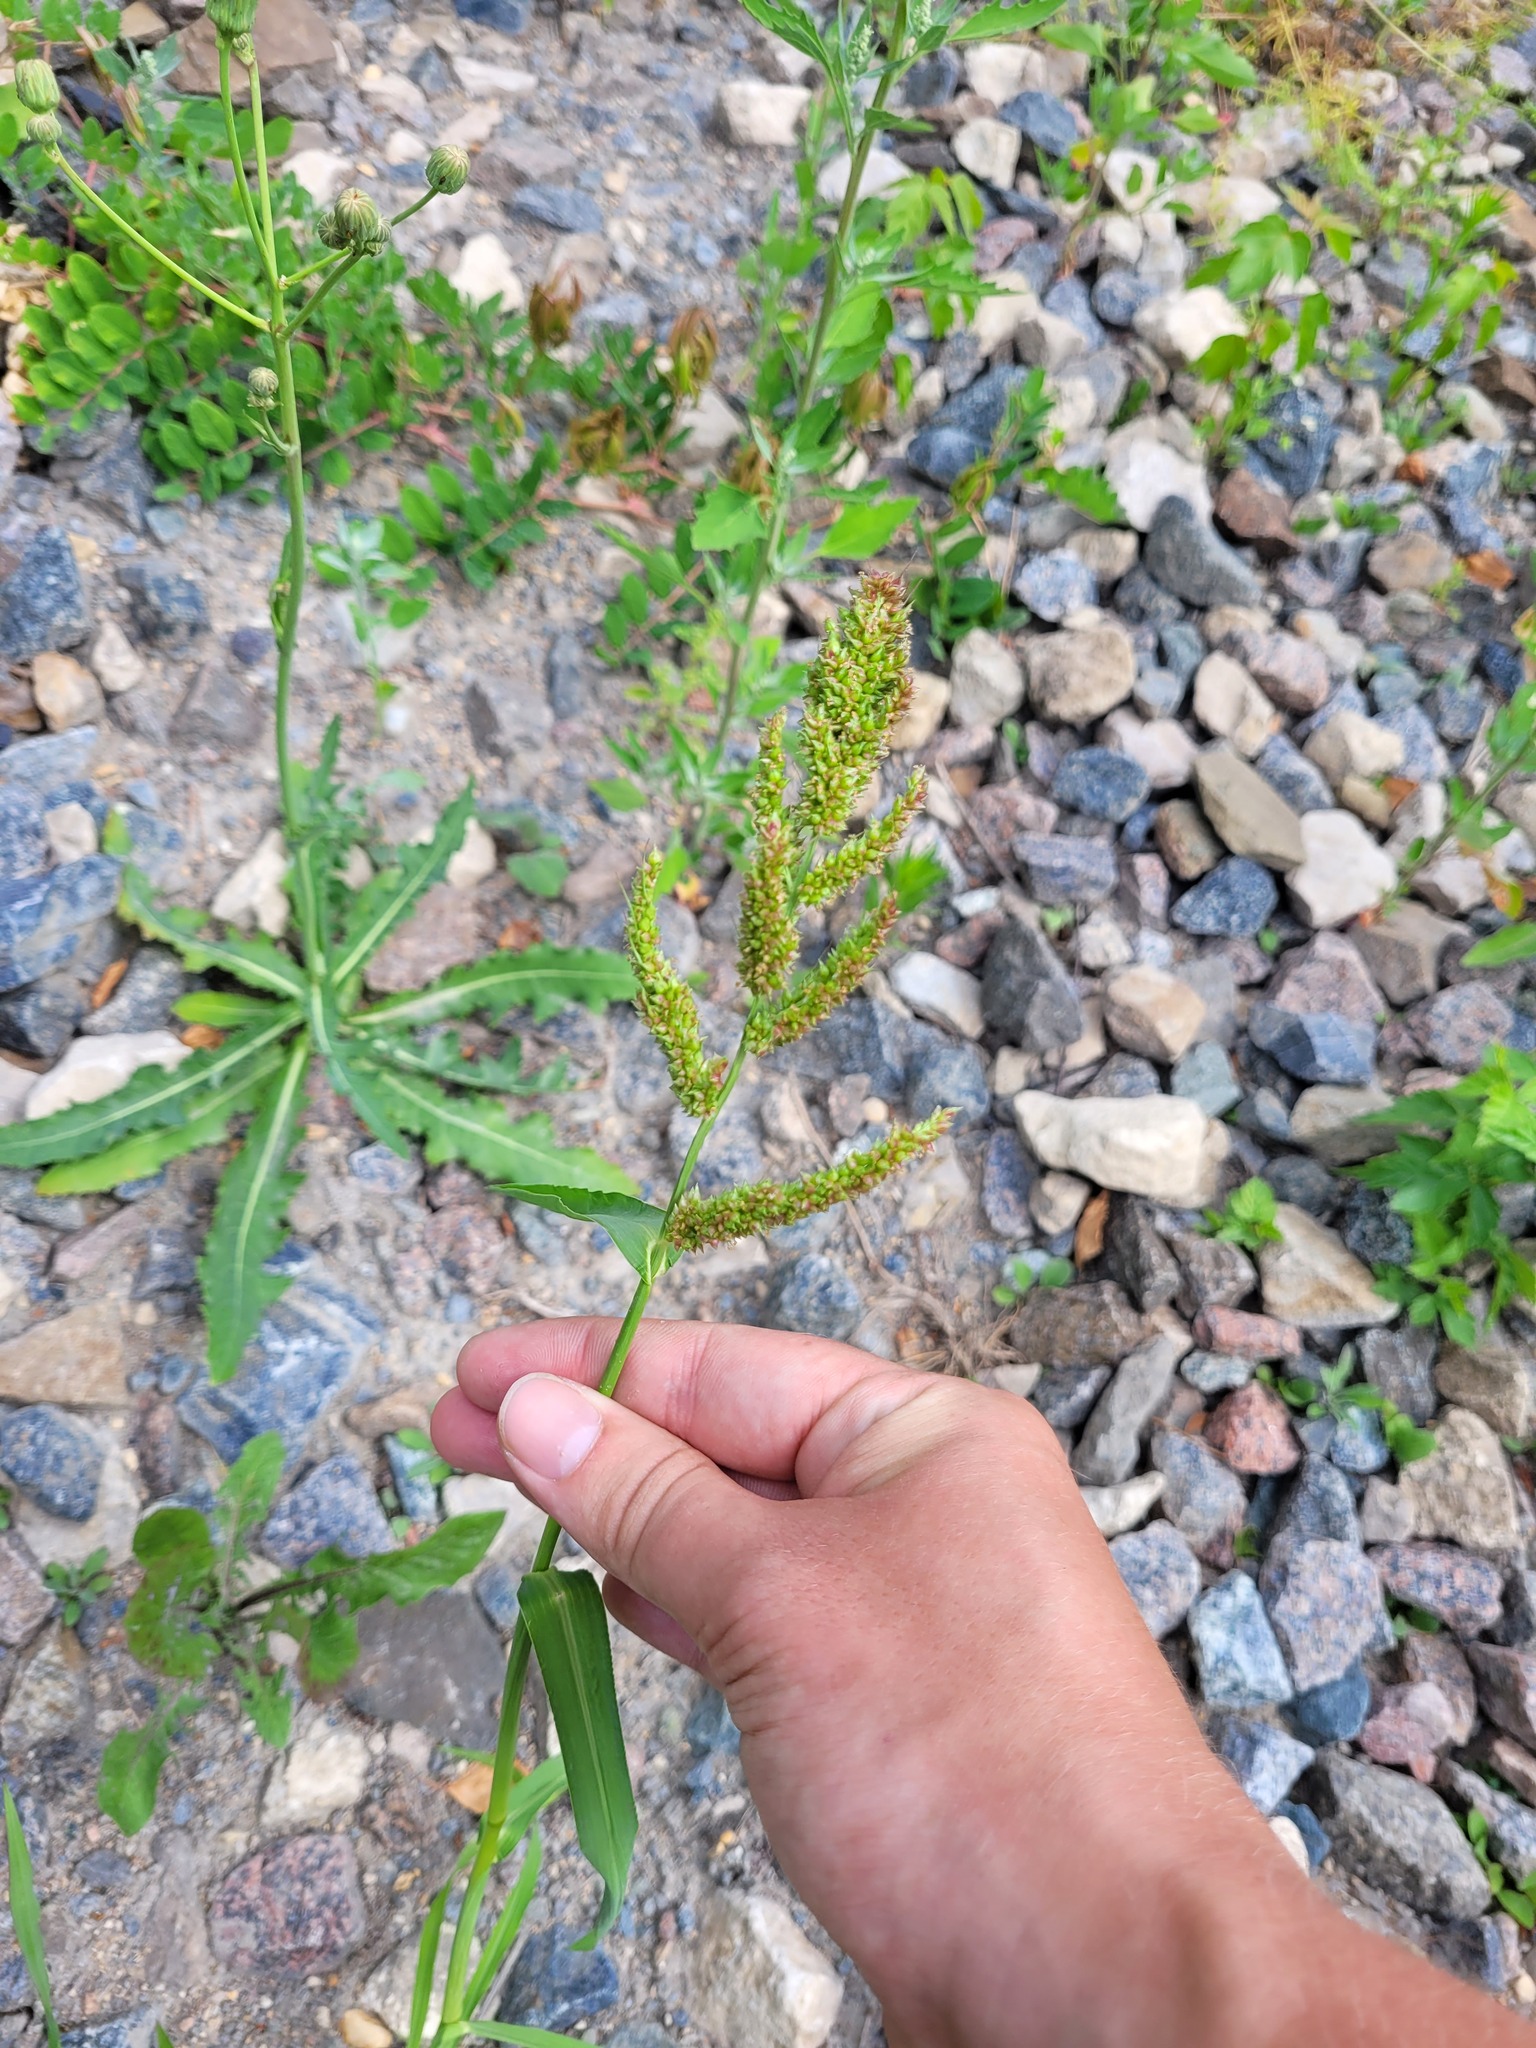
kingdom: Plantae
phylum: Tracheophyta
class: Liliopsida
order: Poales
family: Poaceae
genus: Echinochloa
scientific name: Echinochloa crus-galli
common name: Cockspur
